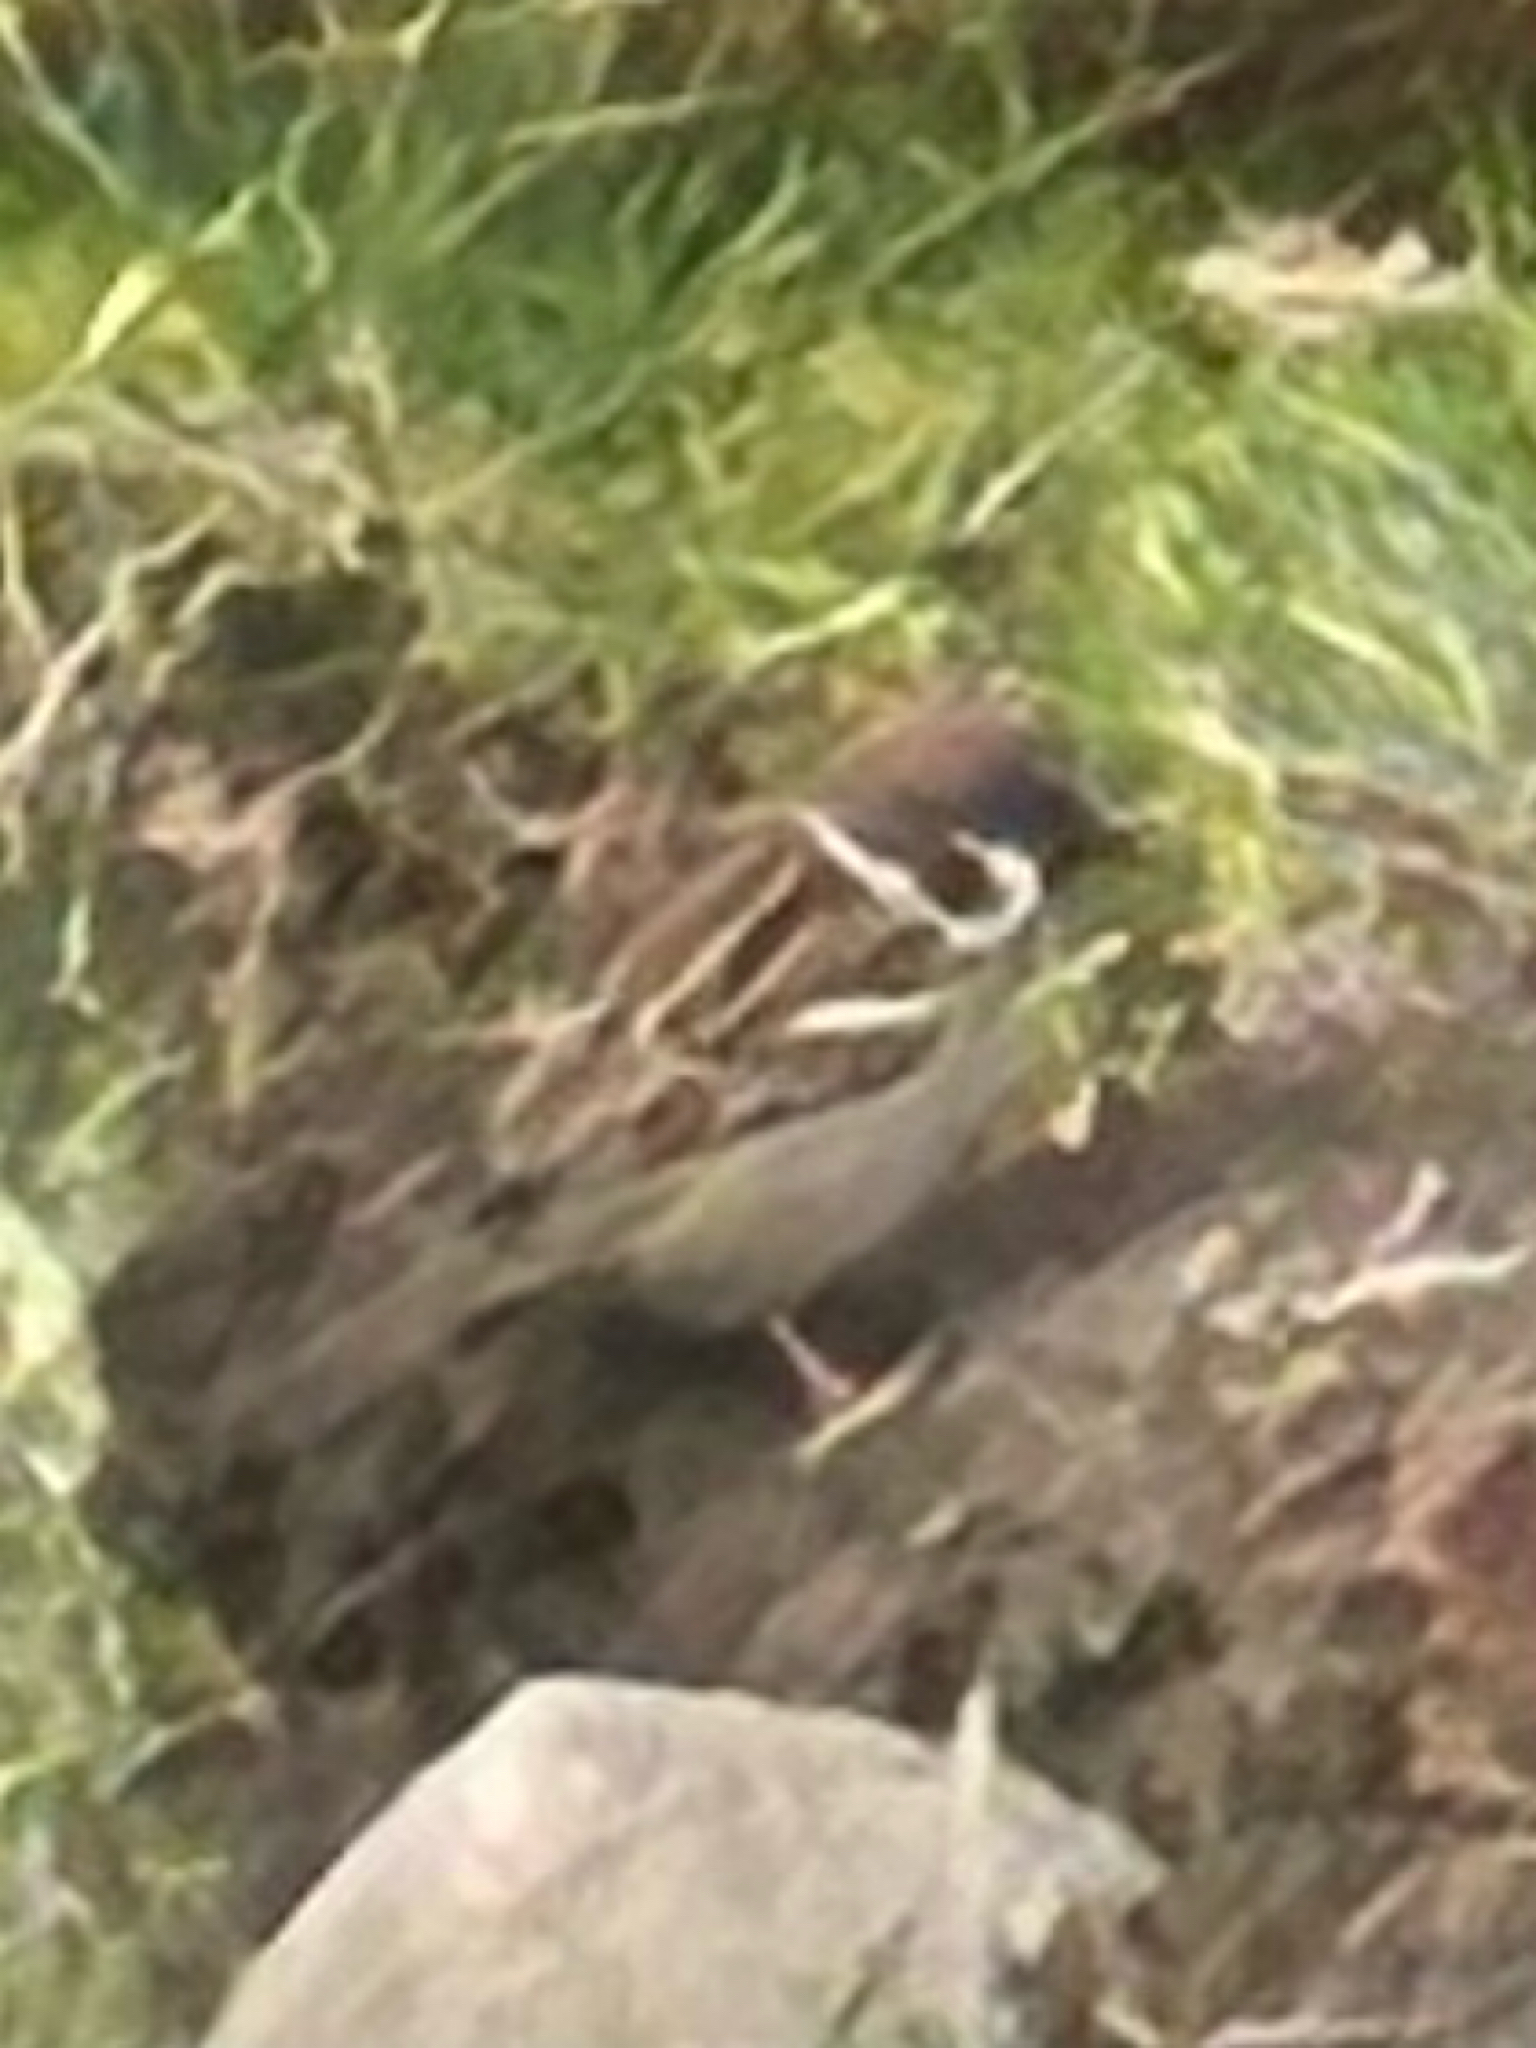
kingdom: Animalia
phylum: Chordata
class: Aves
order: Passeriformes
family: Passeridae
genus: Passer
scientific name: Passer montanus
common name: Eurasian tree sparrow
